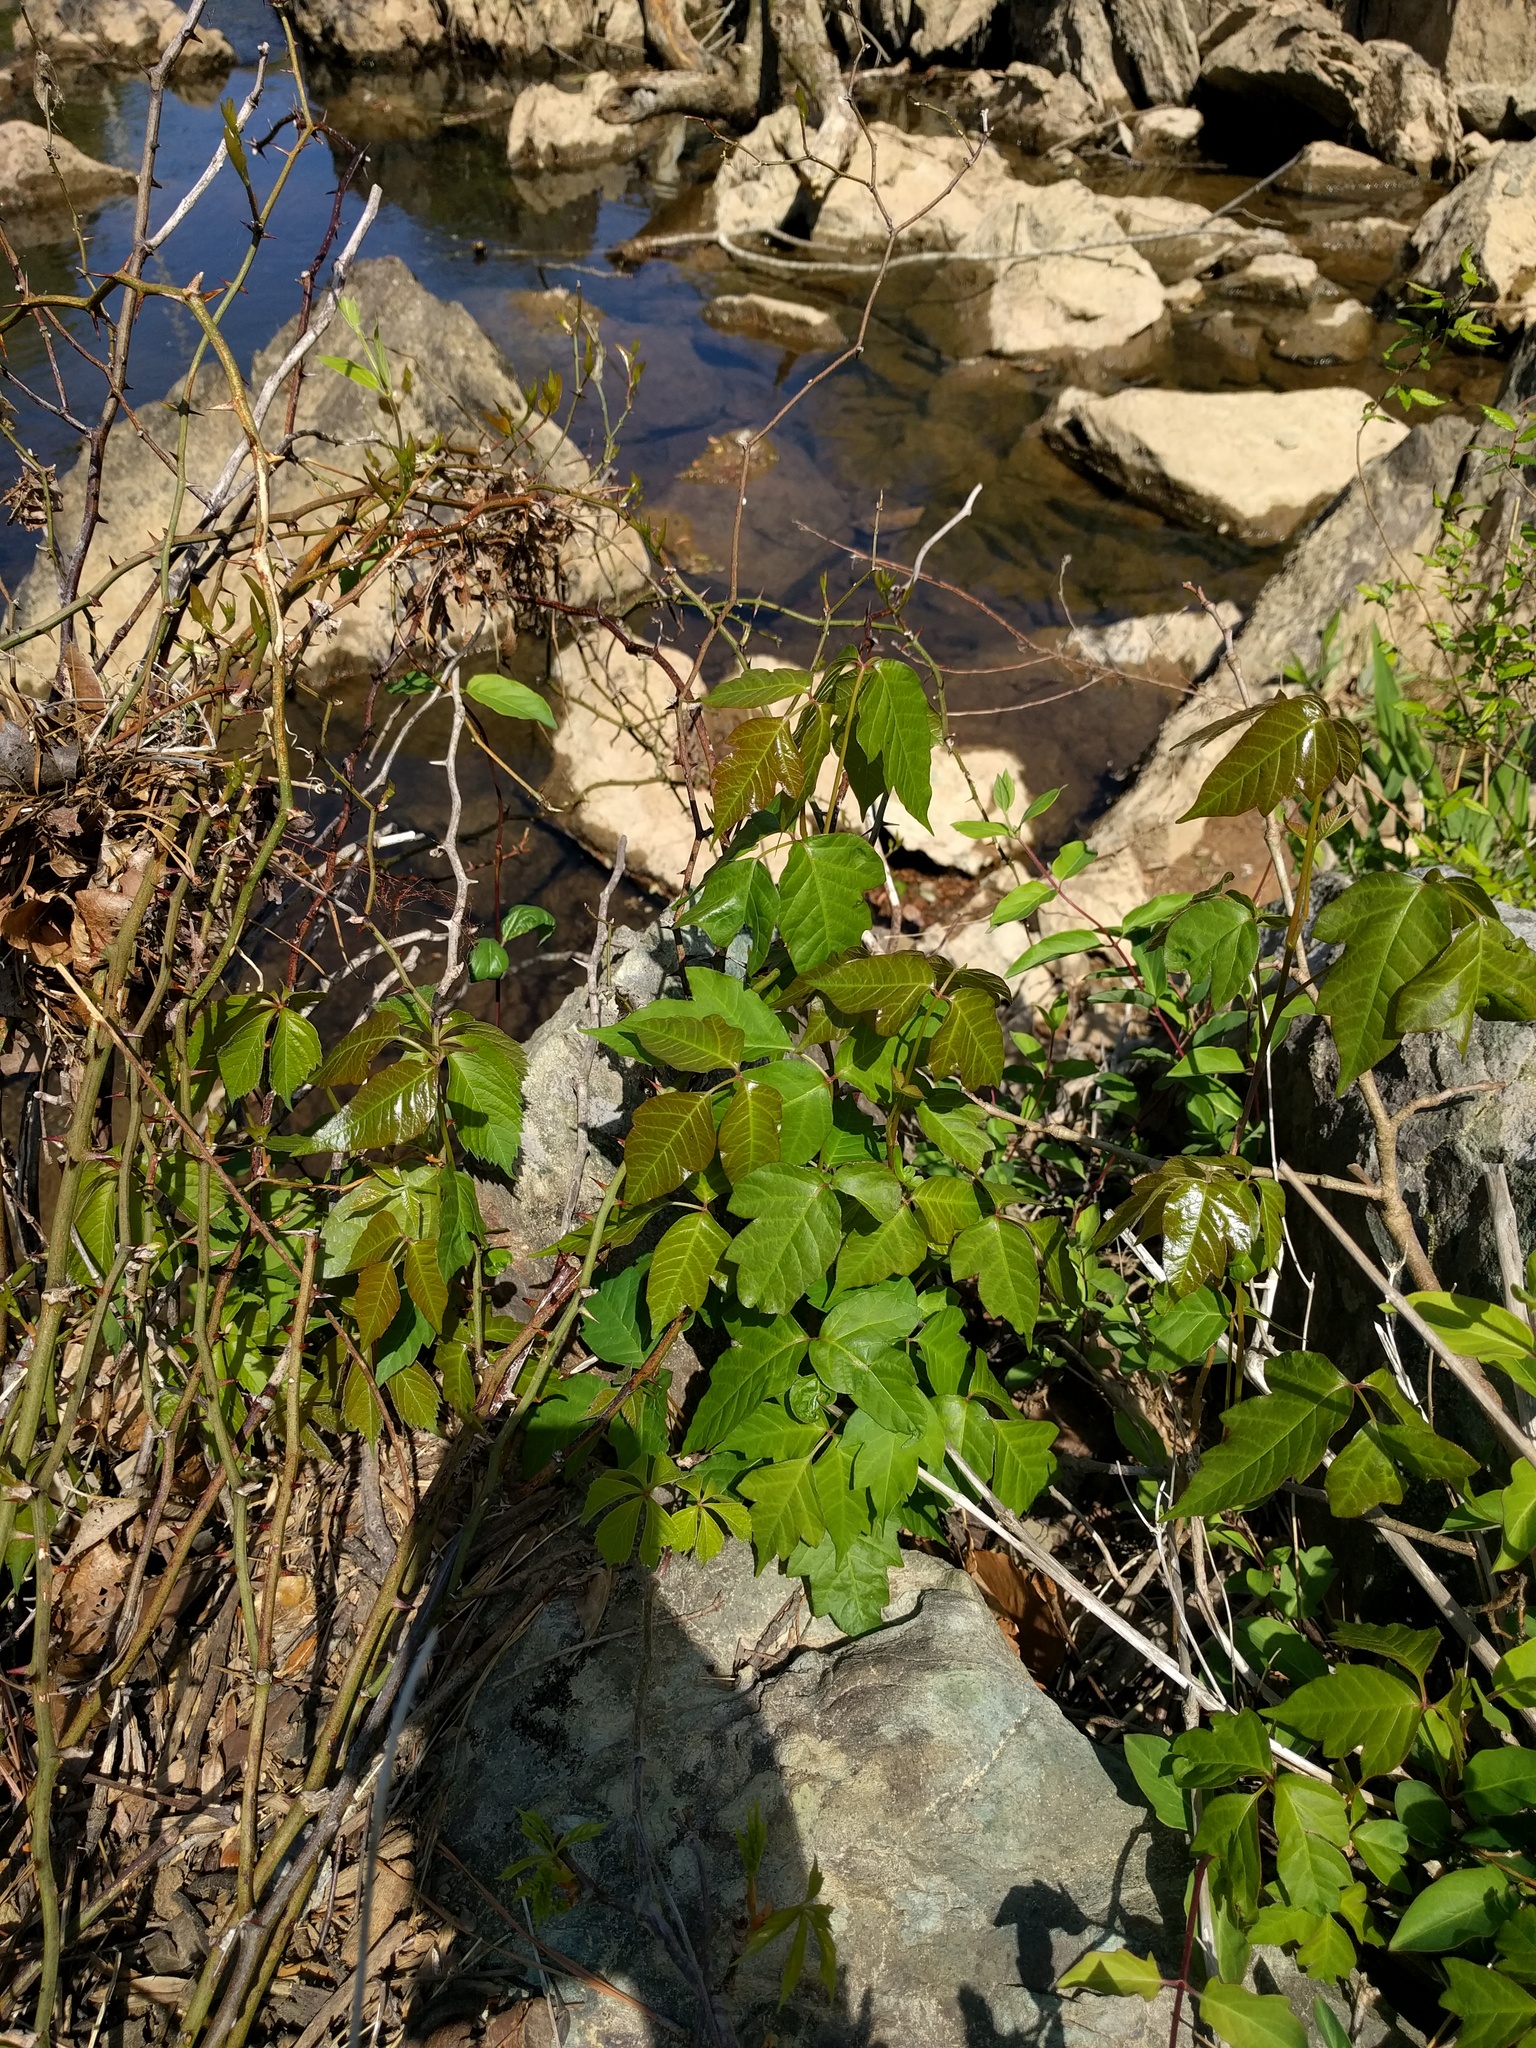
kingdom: Plantae
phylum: Tracheophyta
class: Magnoliopsida
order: Sapindales
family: Anacardiaceae
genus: Toxicodendron
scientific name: Toxicodendron radicans
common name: Poison ivy
